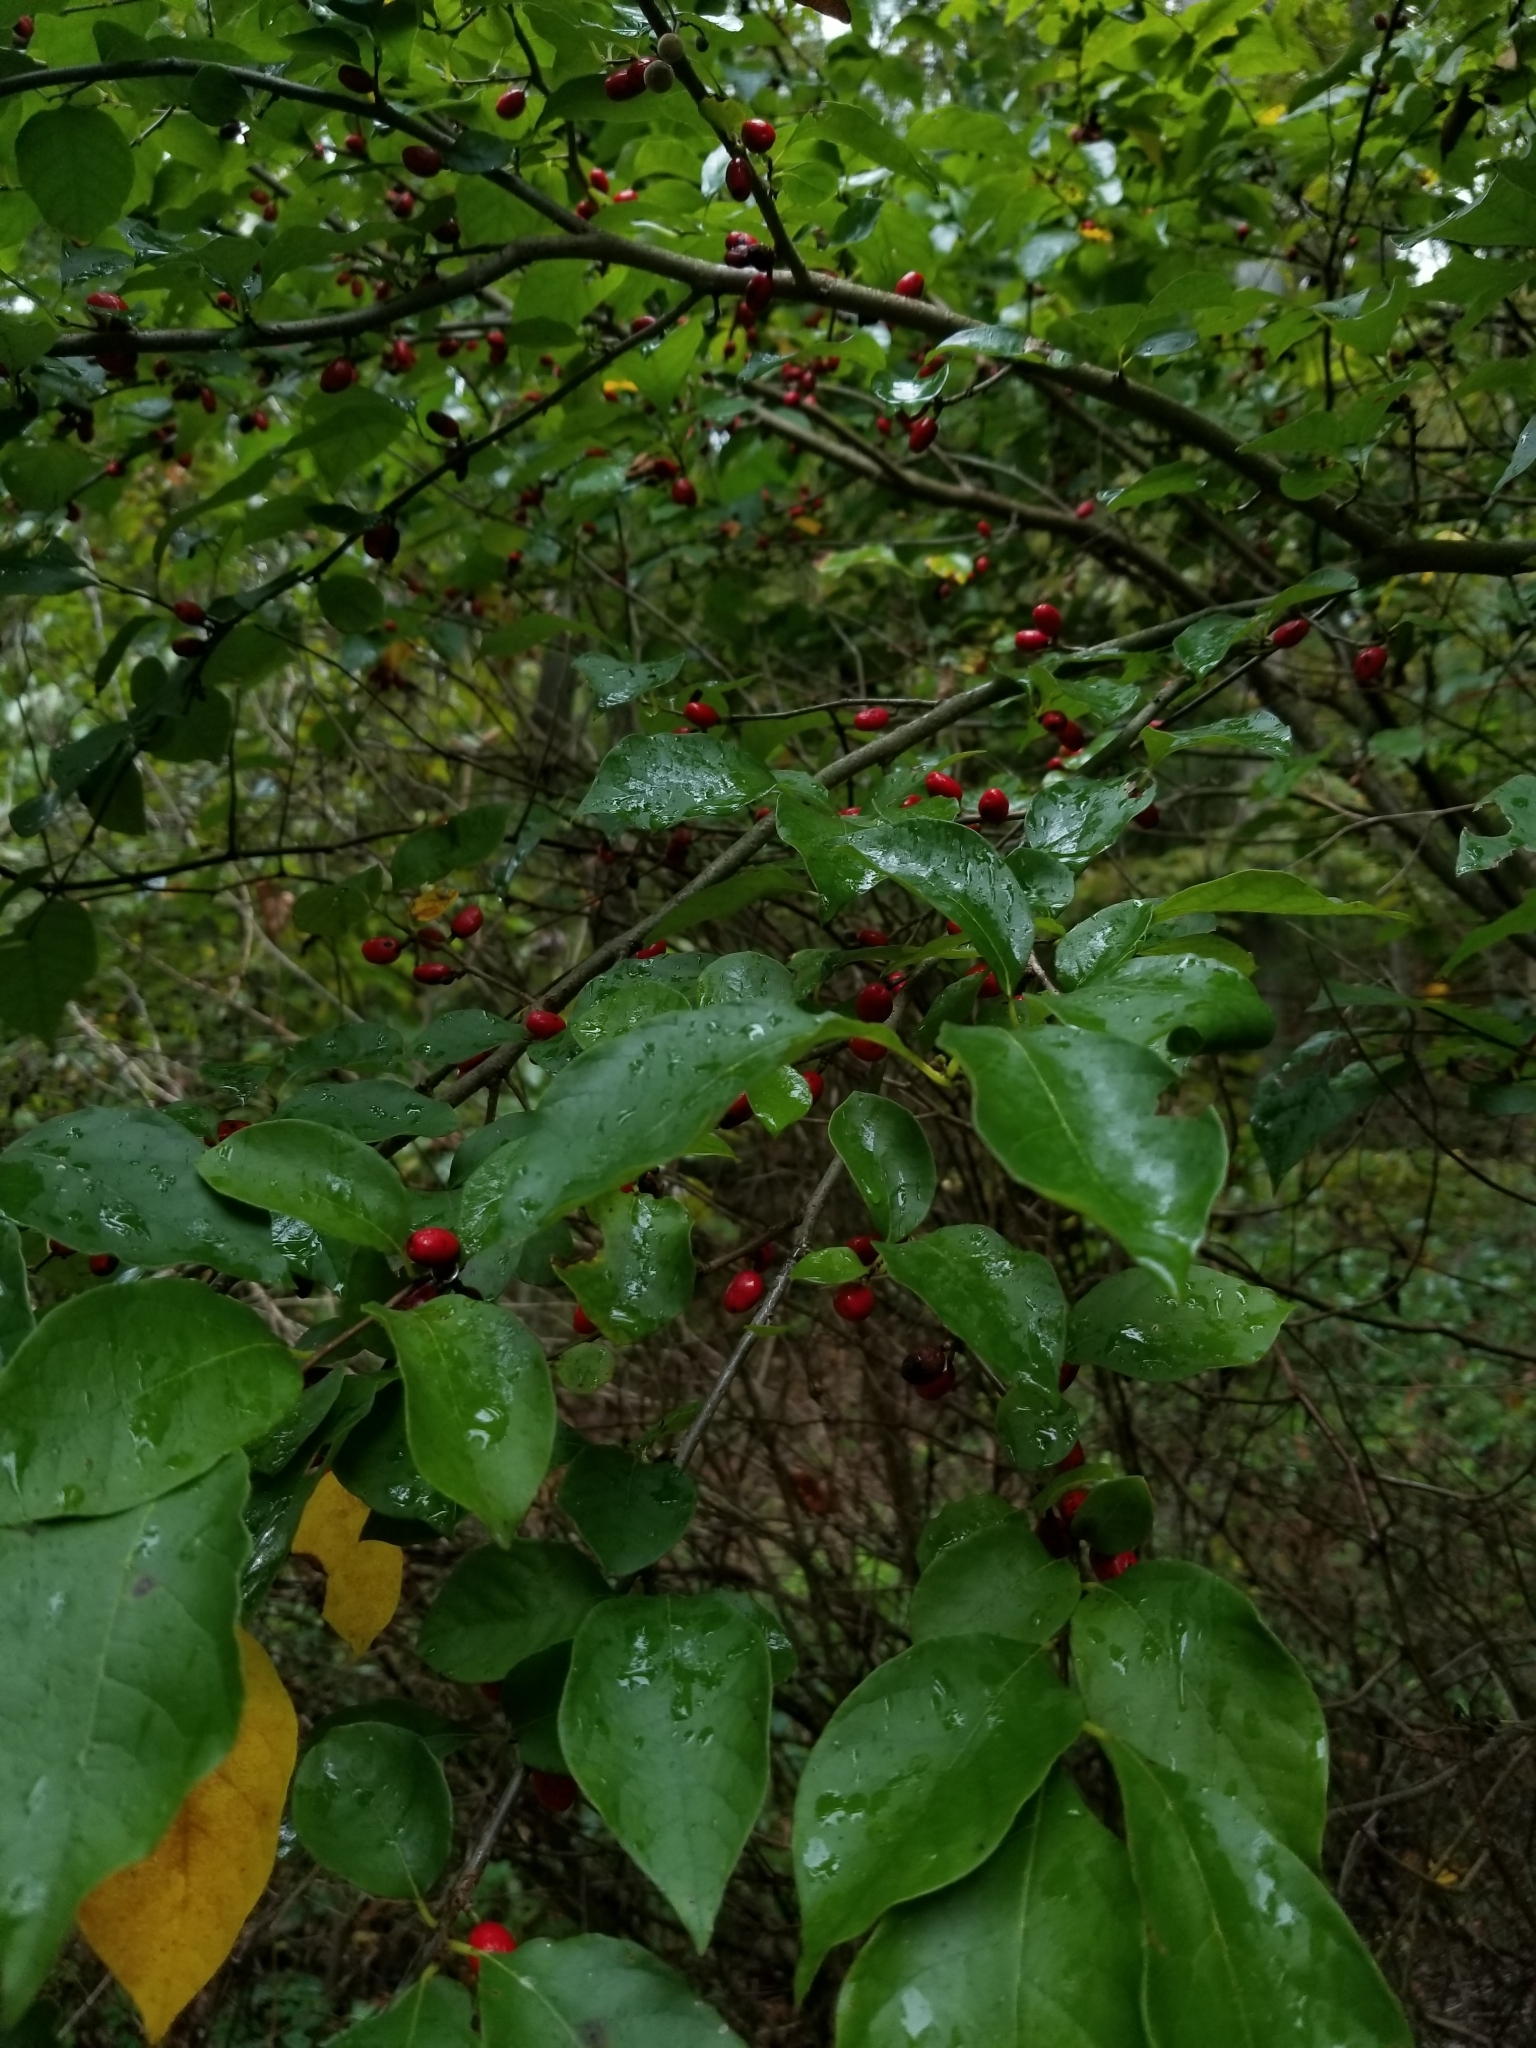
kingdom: Plantae
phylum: Tracheophyta
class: Magnoliopsida
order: Laurales
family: Lauraceae
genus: Lindera
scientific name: Lindera benzoin
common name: Spicebush
